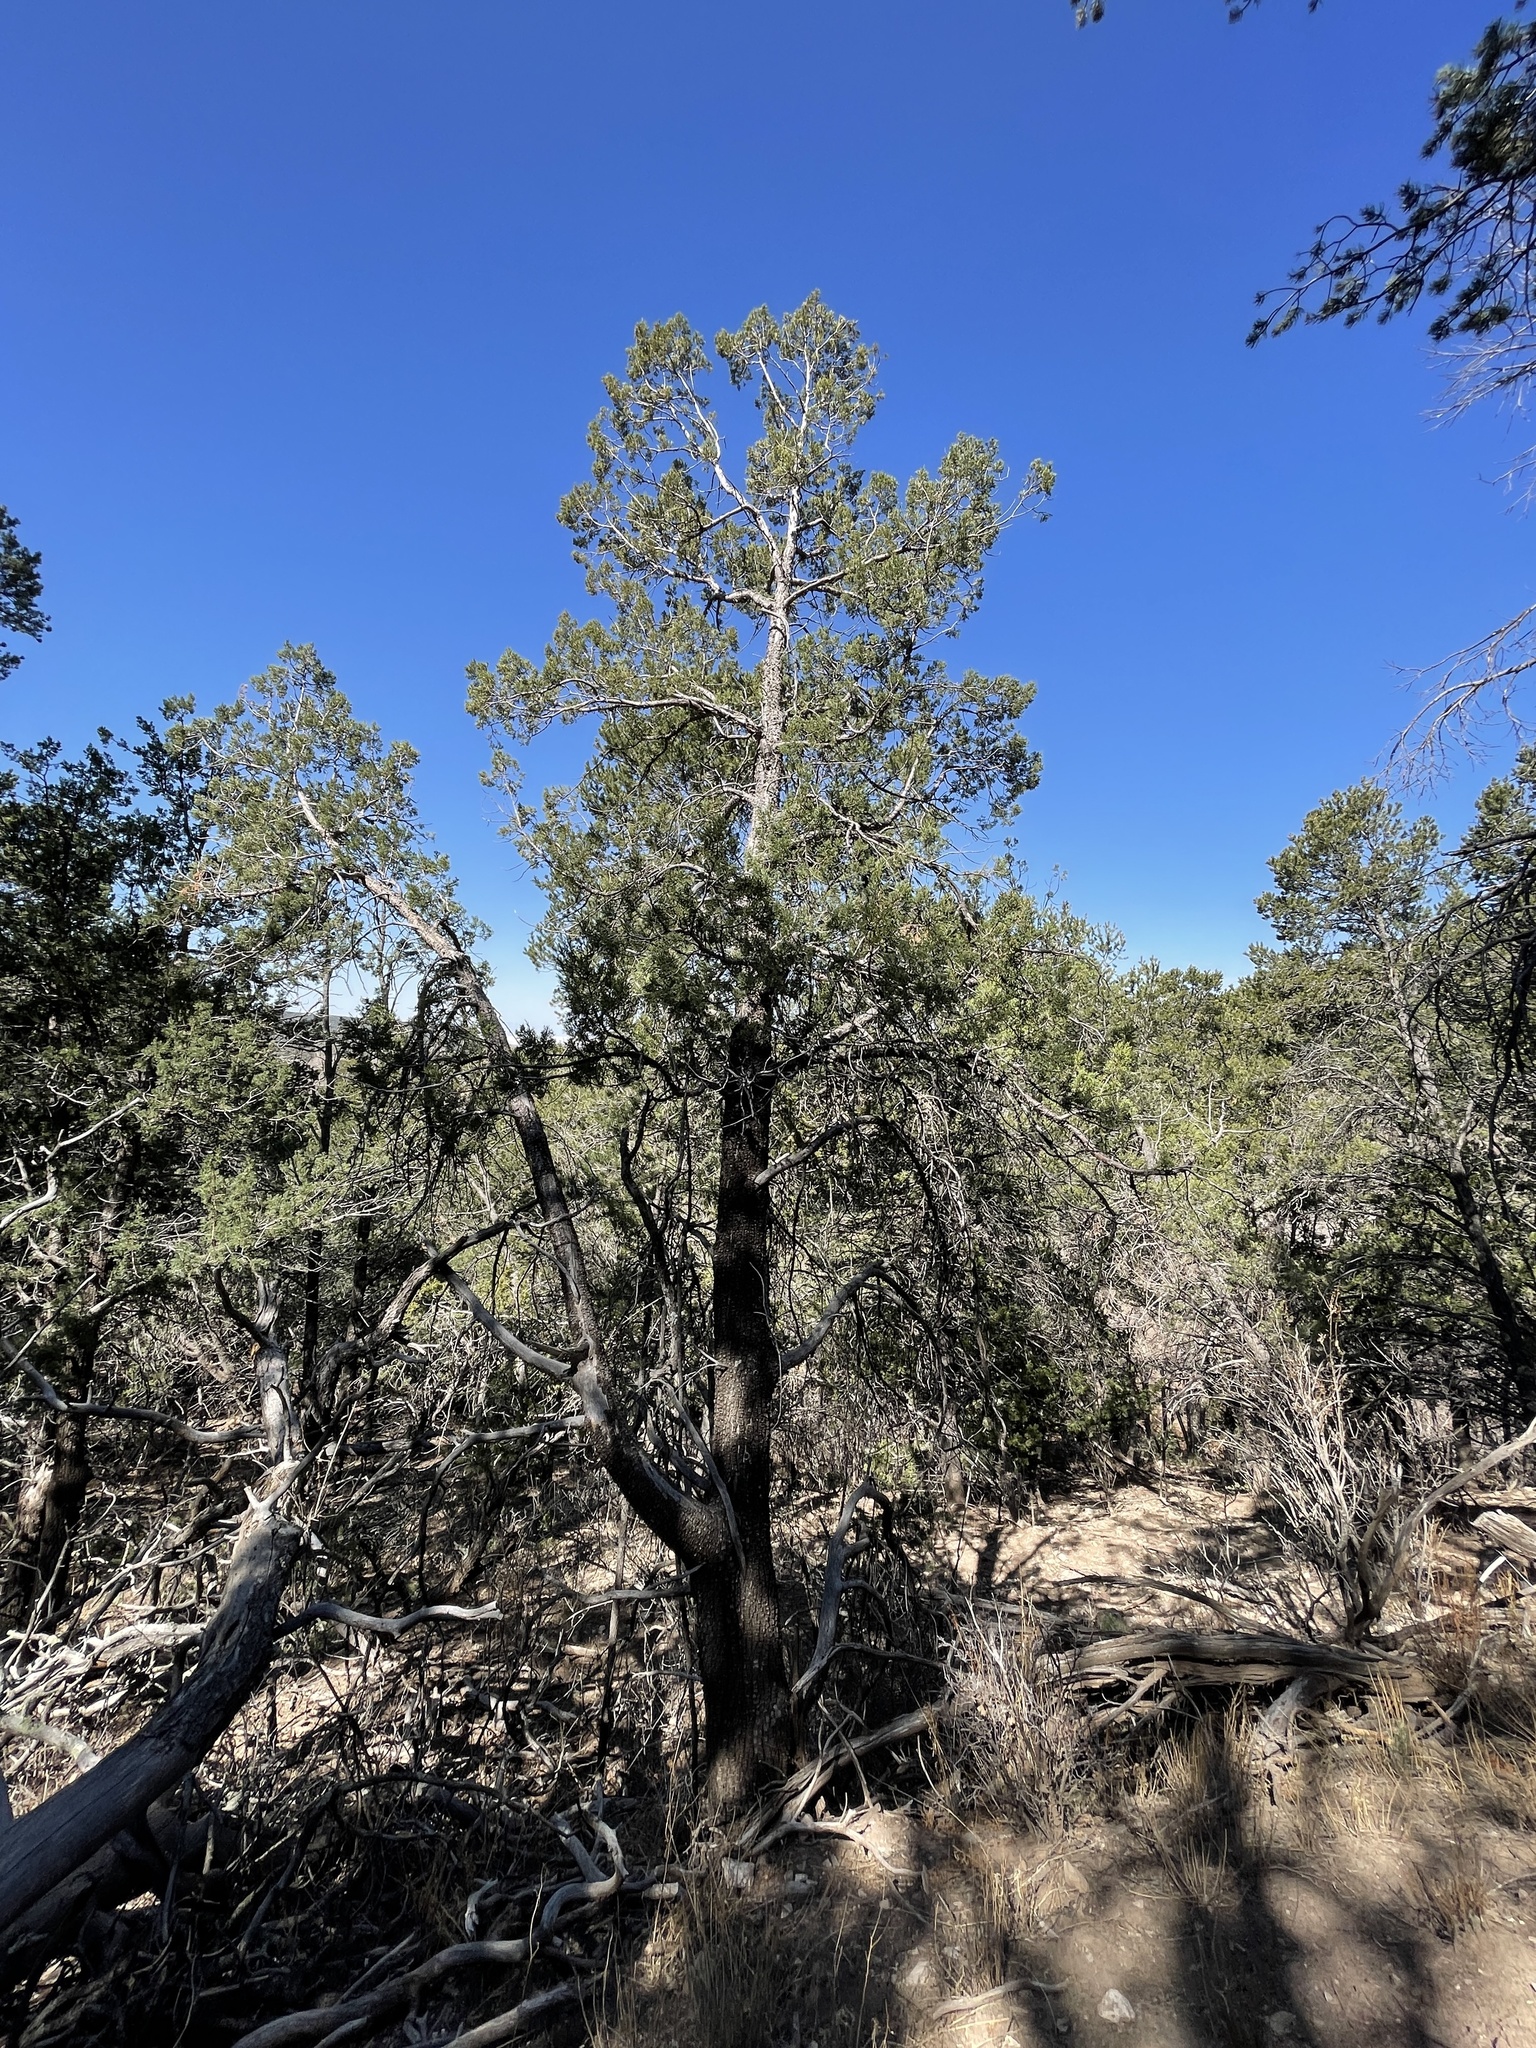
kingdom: Plantae
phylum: Tracheophyta
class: Pinopsida
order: Pinales
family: Cupressaceae
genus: Juniperus
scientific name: Juniperus deppeana
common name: Alligator juniper
